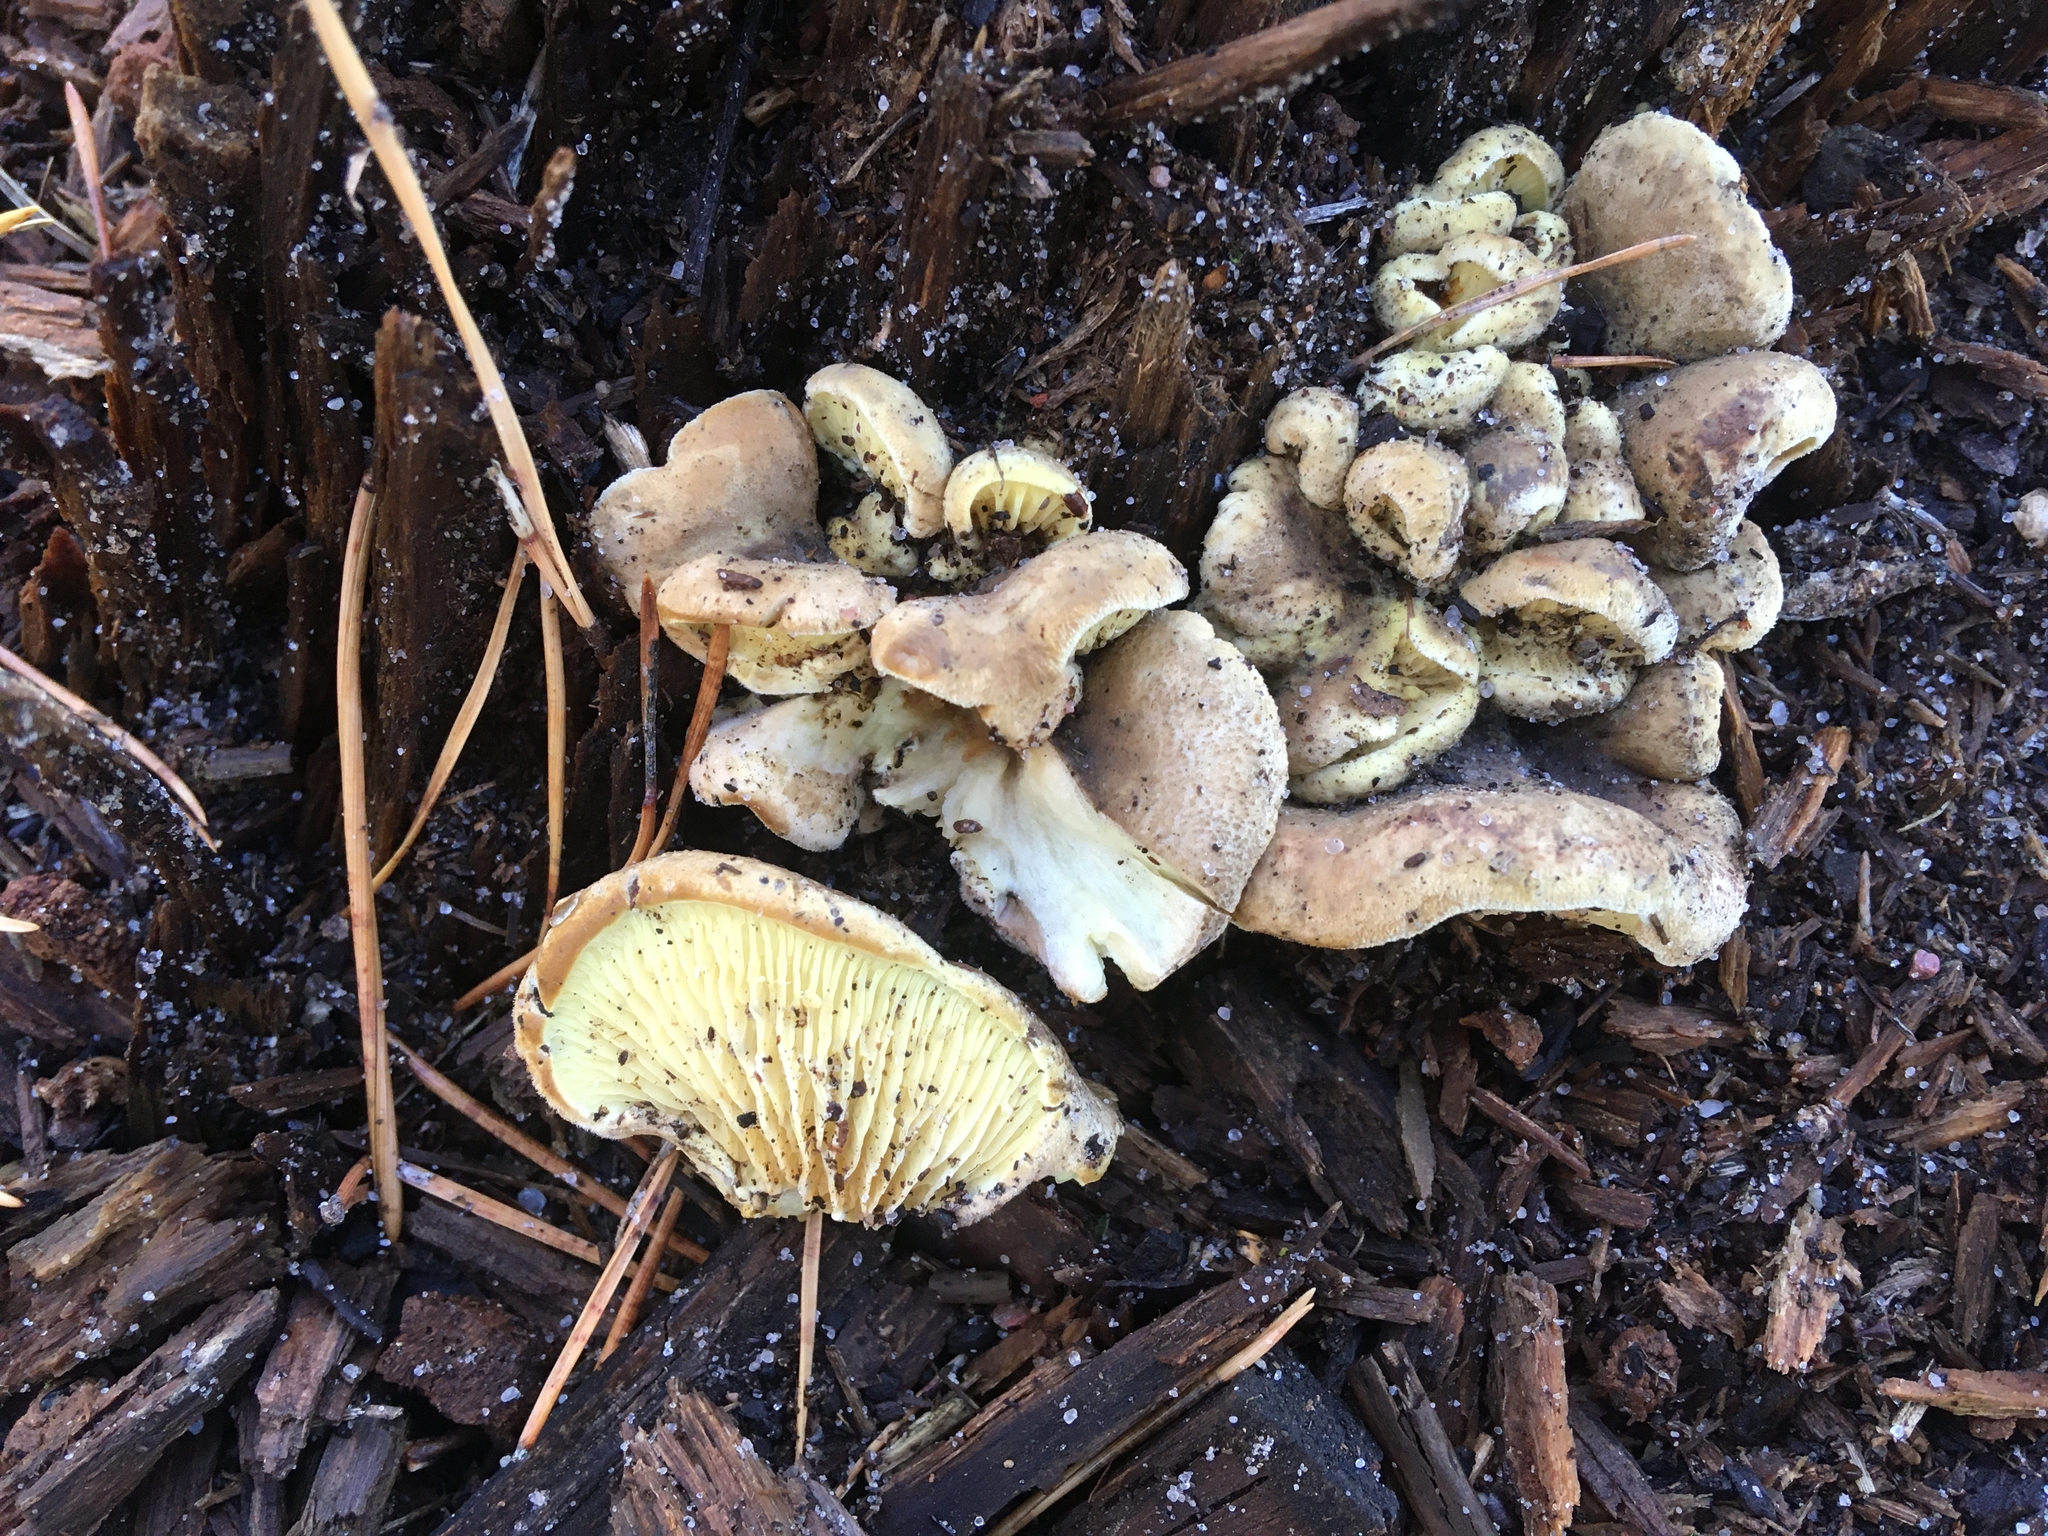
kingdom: Fungi
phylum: Basidiomycota
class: Agaricomycetes
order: Boletales
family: Tapinellaceae
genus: Tapinella
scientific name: Tapinella panuoides
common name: Oyster rollrim
